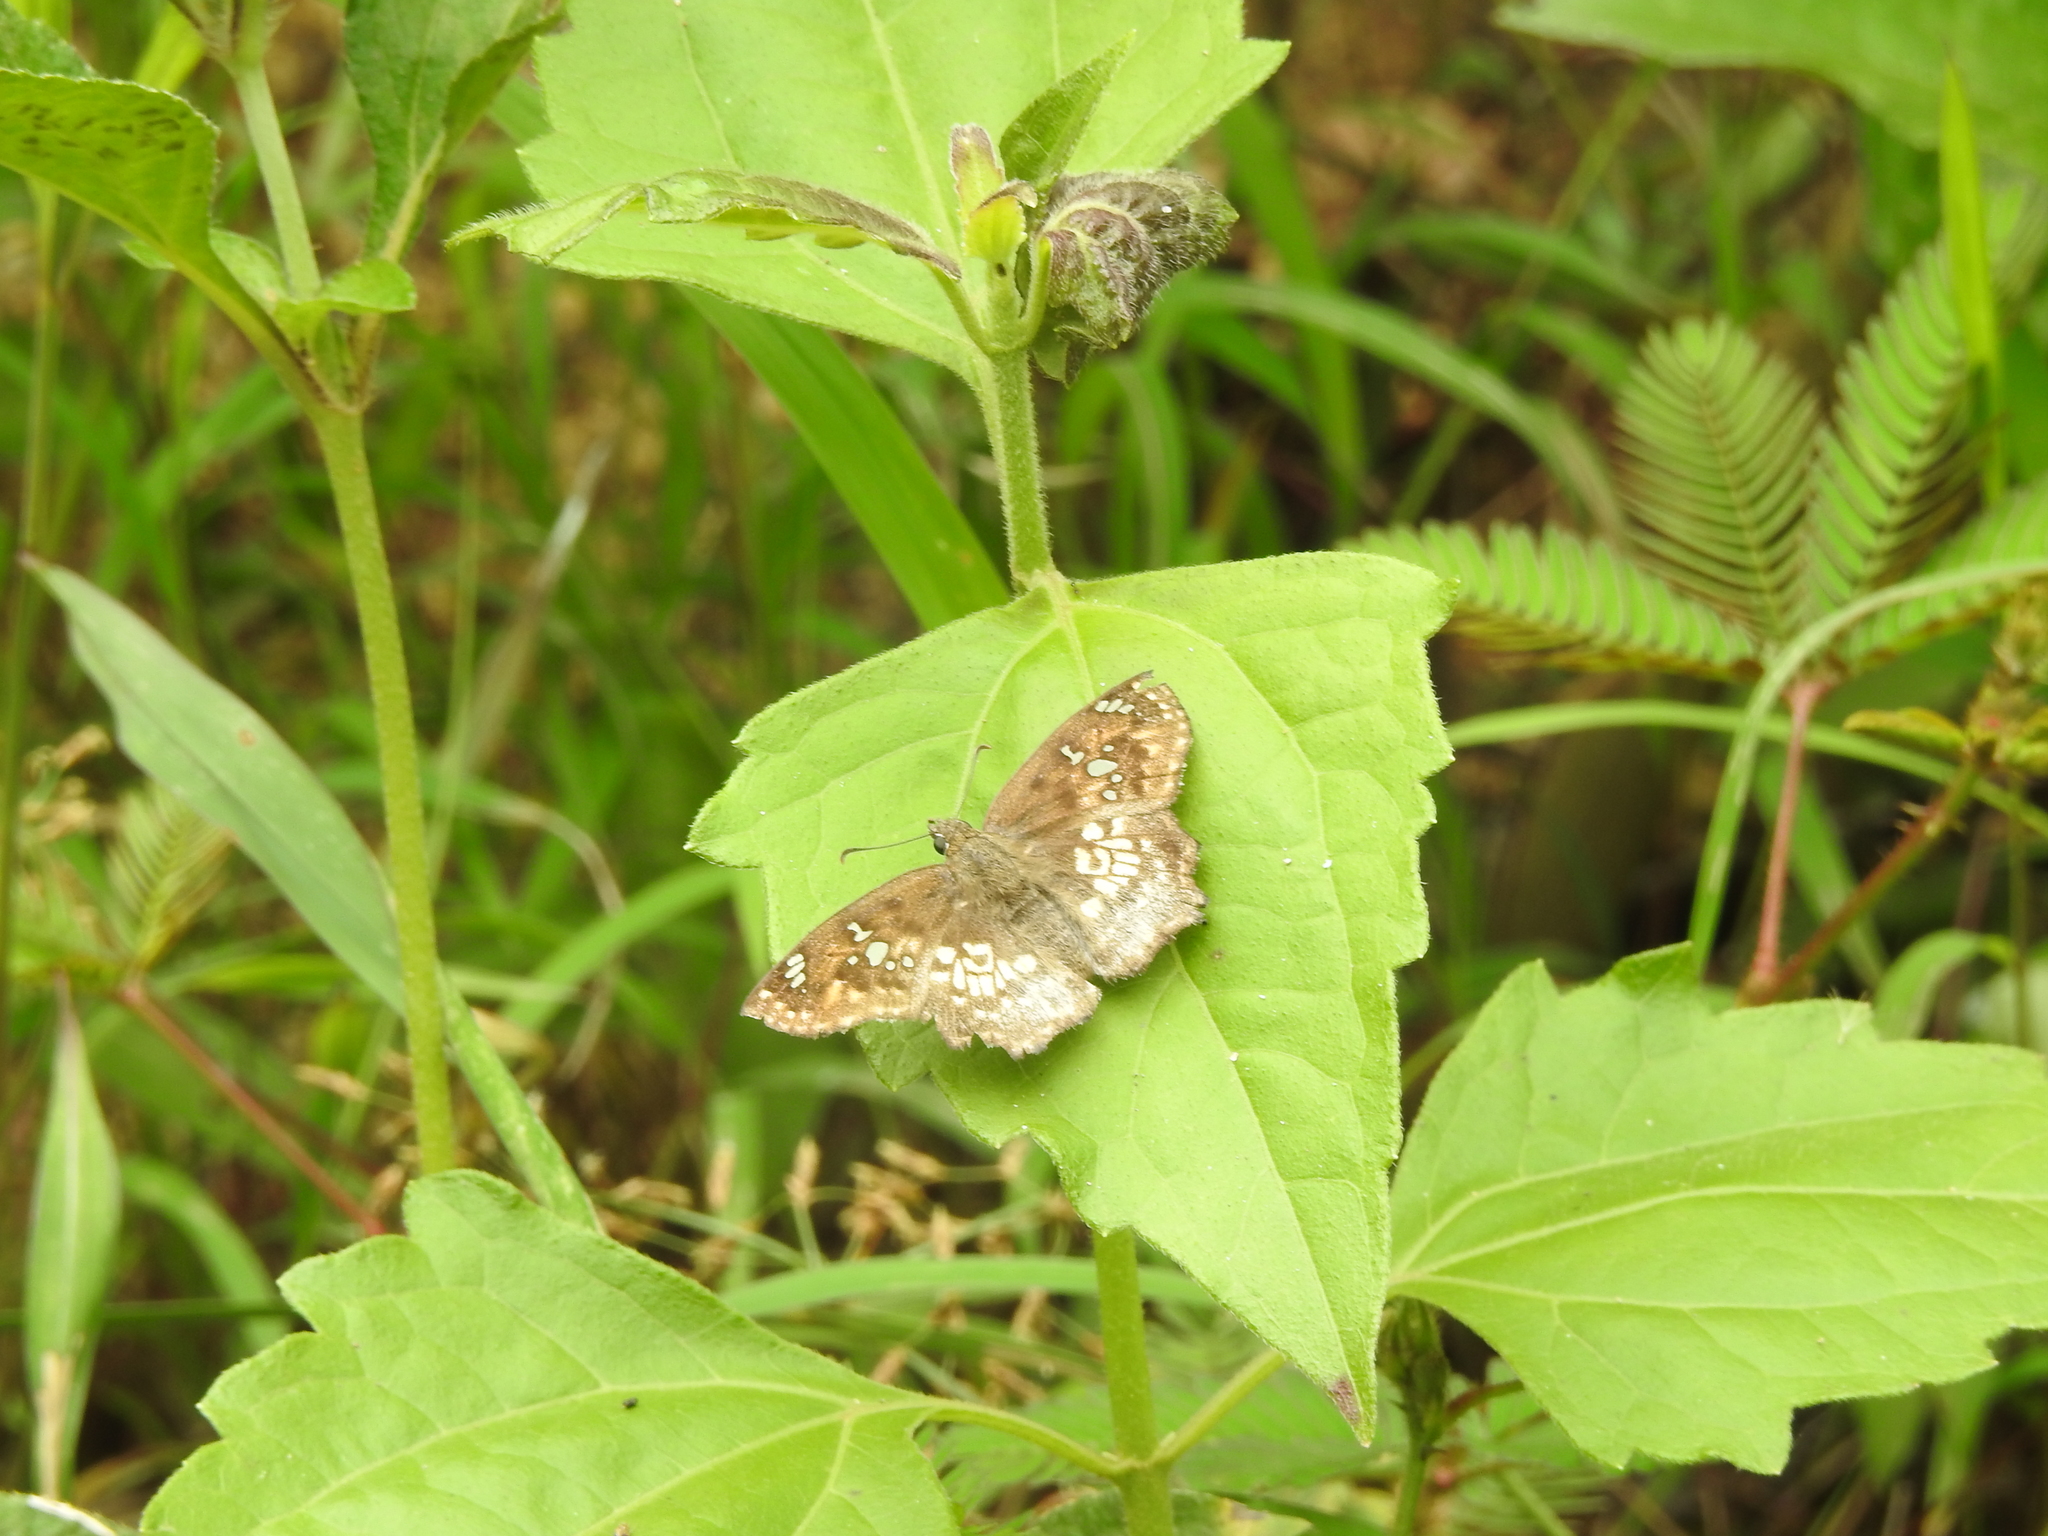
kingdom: Animalia
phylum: Arthropoda
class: Insecta
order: Lepidoptera
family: Hesperiidae
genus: Caprona
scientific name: Caprona ransonnettii
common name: Golden angle
